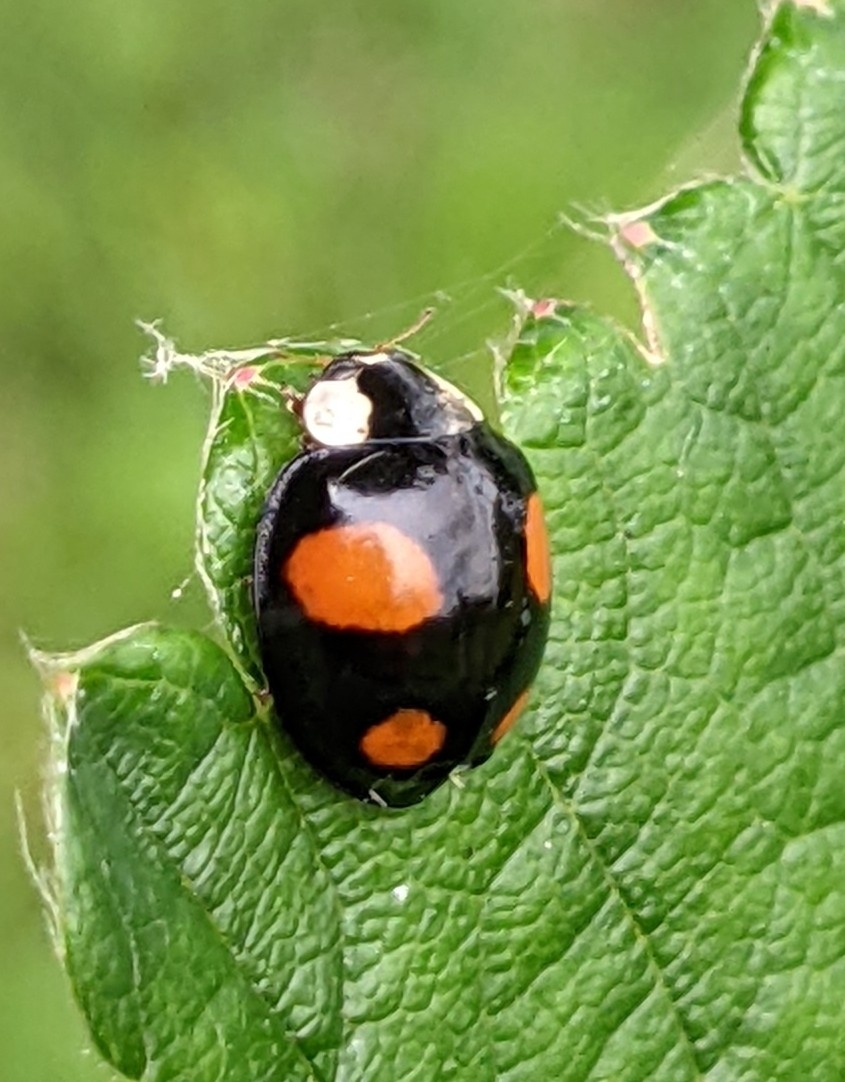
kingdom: Animalia
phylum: Arthropoda
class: Insecta
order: Coleoptera
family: Coccinellidae
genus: Harmonia
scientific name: Harmonia axyridis
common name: Harlequin ladybird
